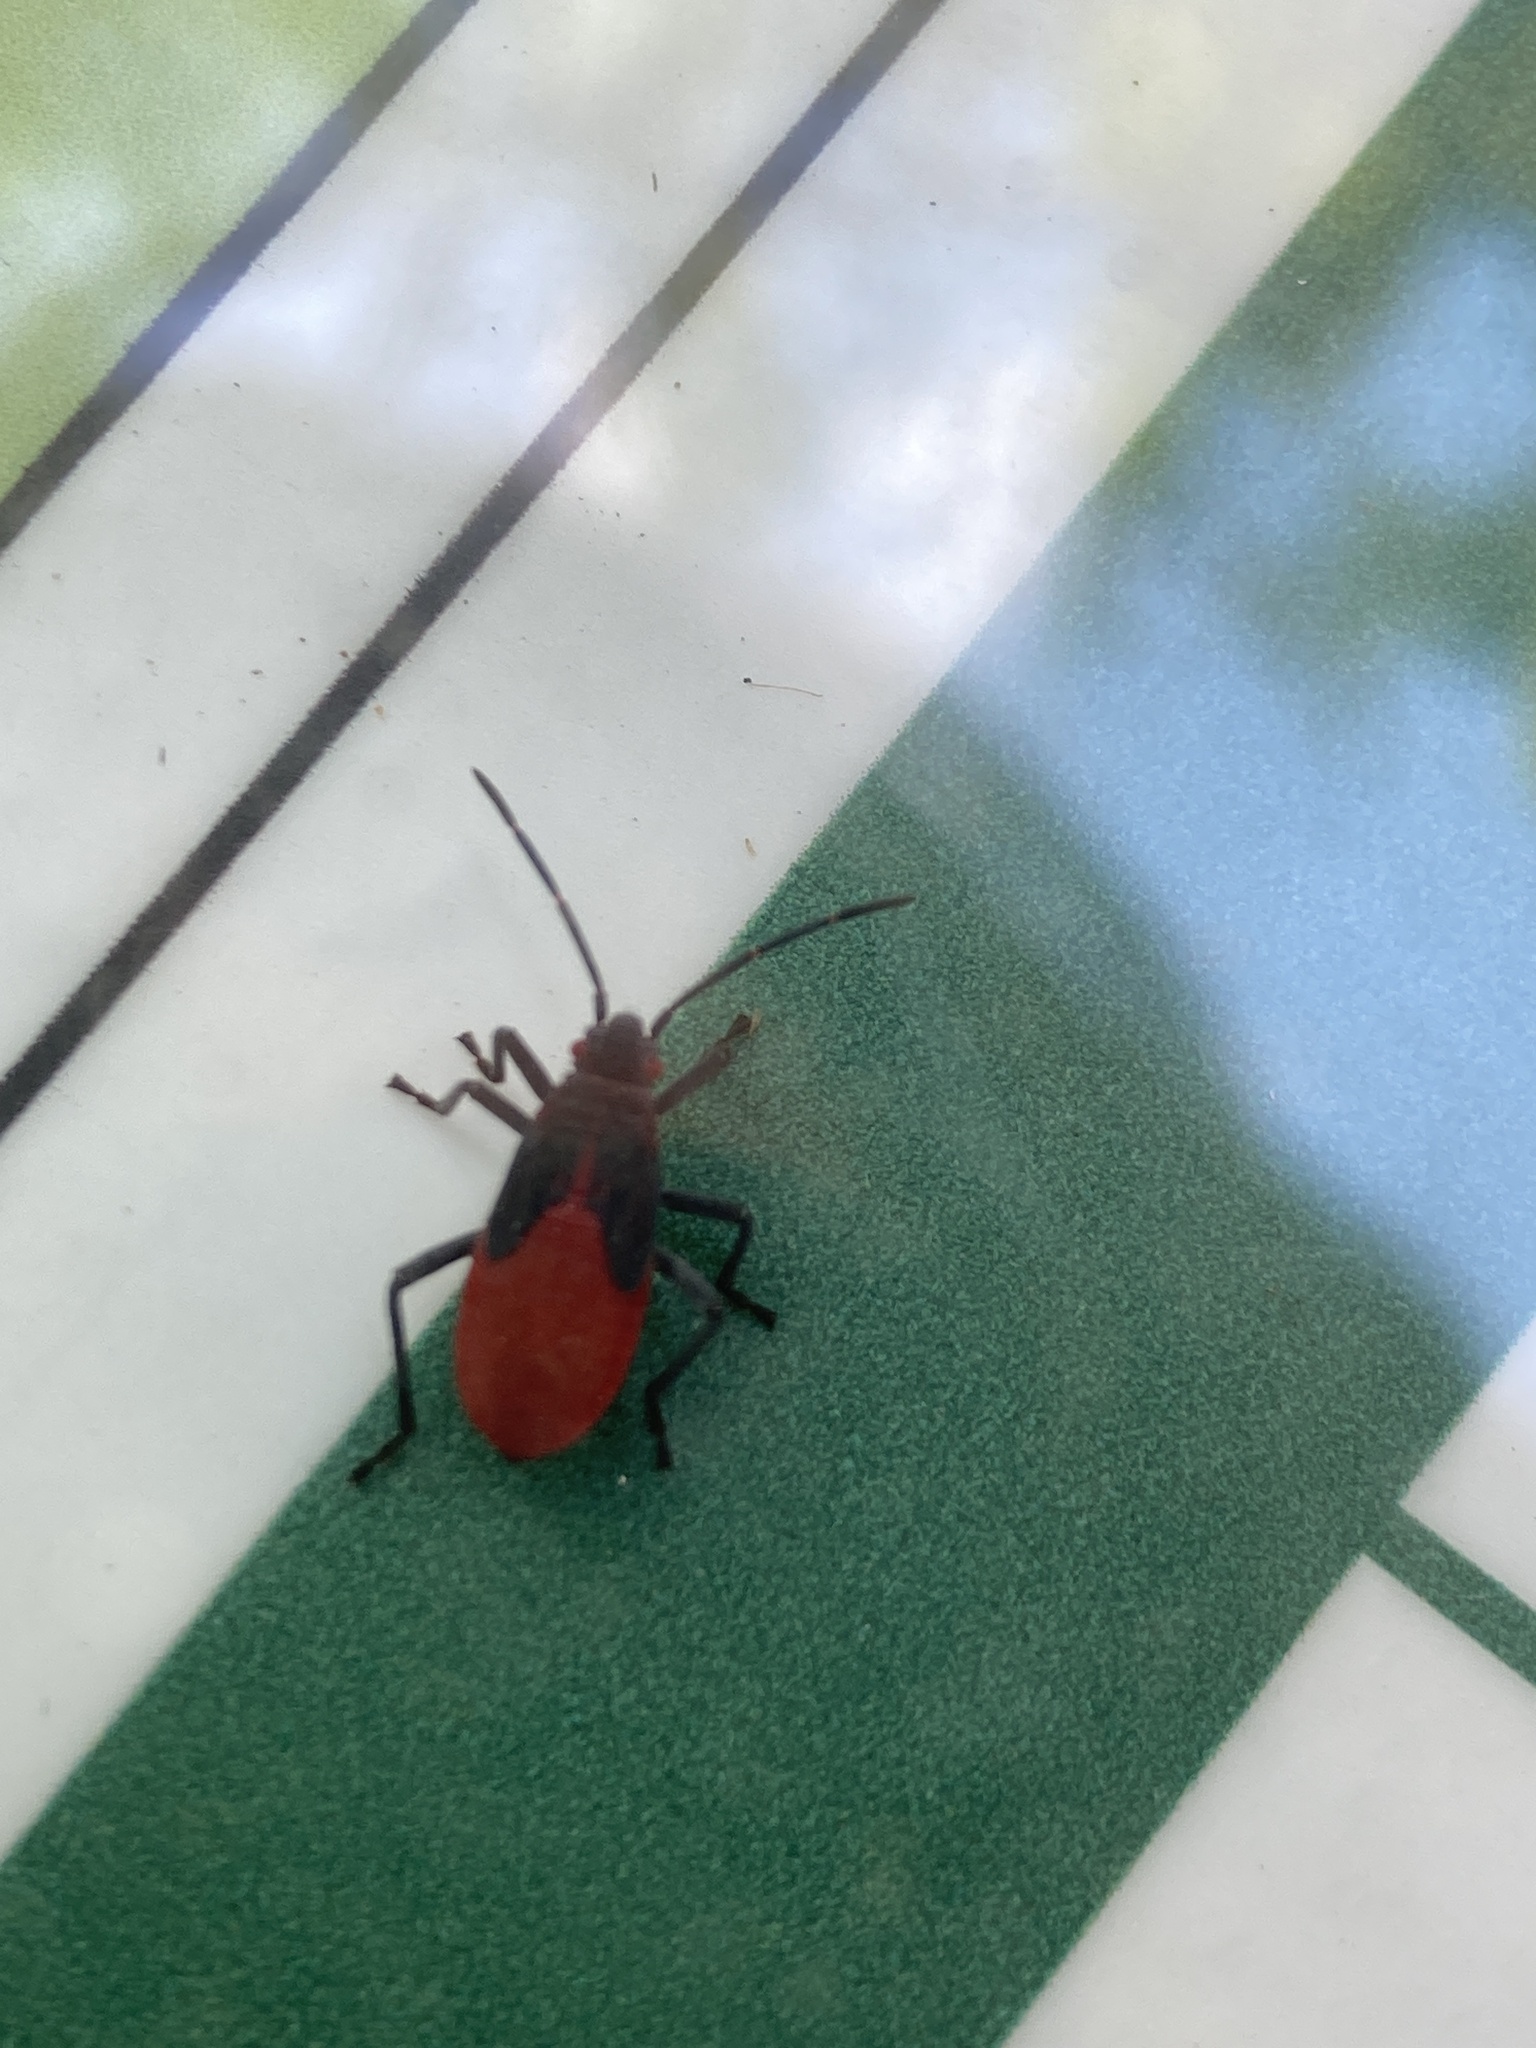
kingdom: Animalia
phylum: Arthropoda
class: Insecta
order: Hemiptera
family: Rhopalidae
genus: Jadera
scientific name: Jadera haematoloma
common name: Red-shouldered bug
